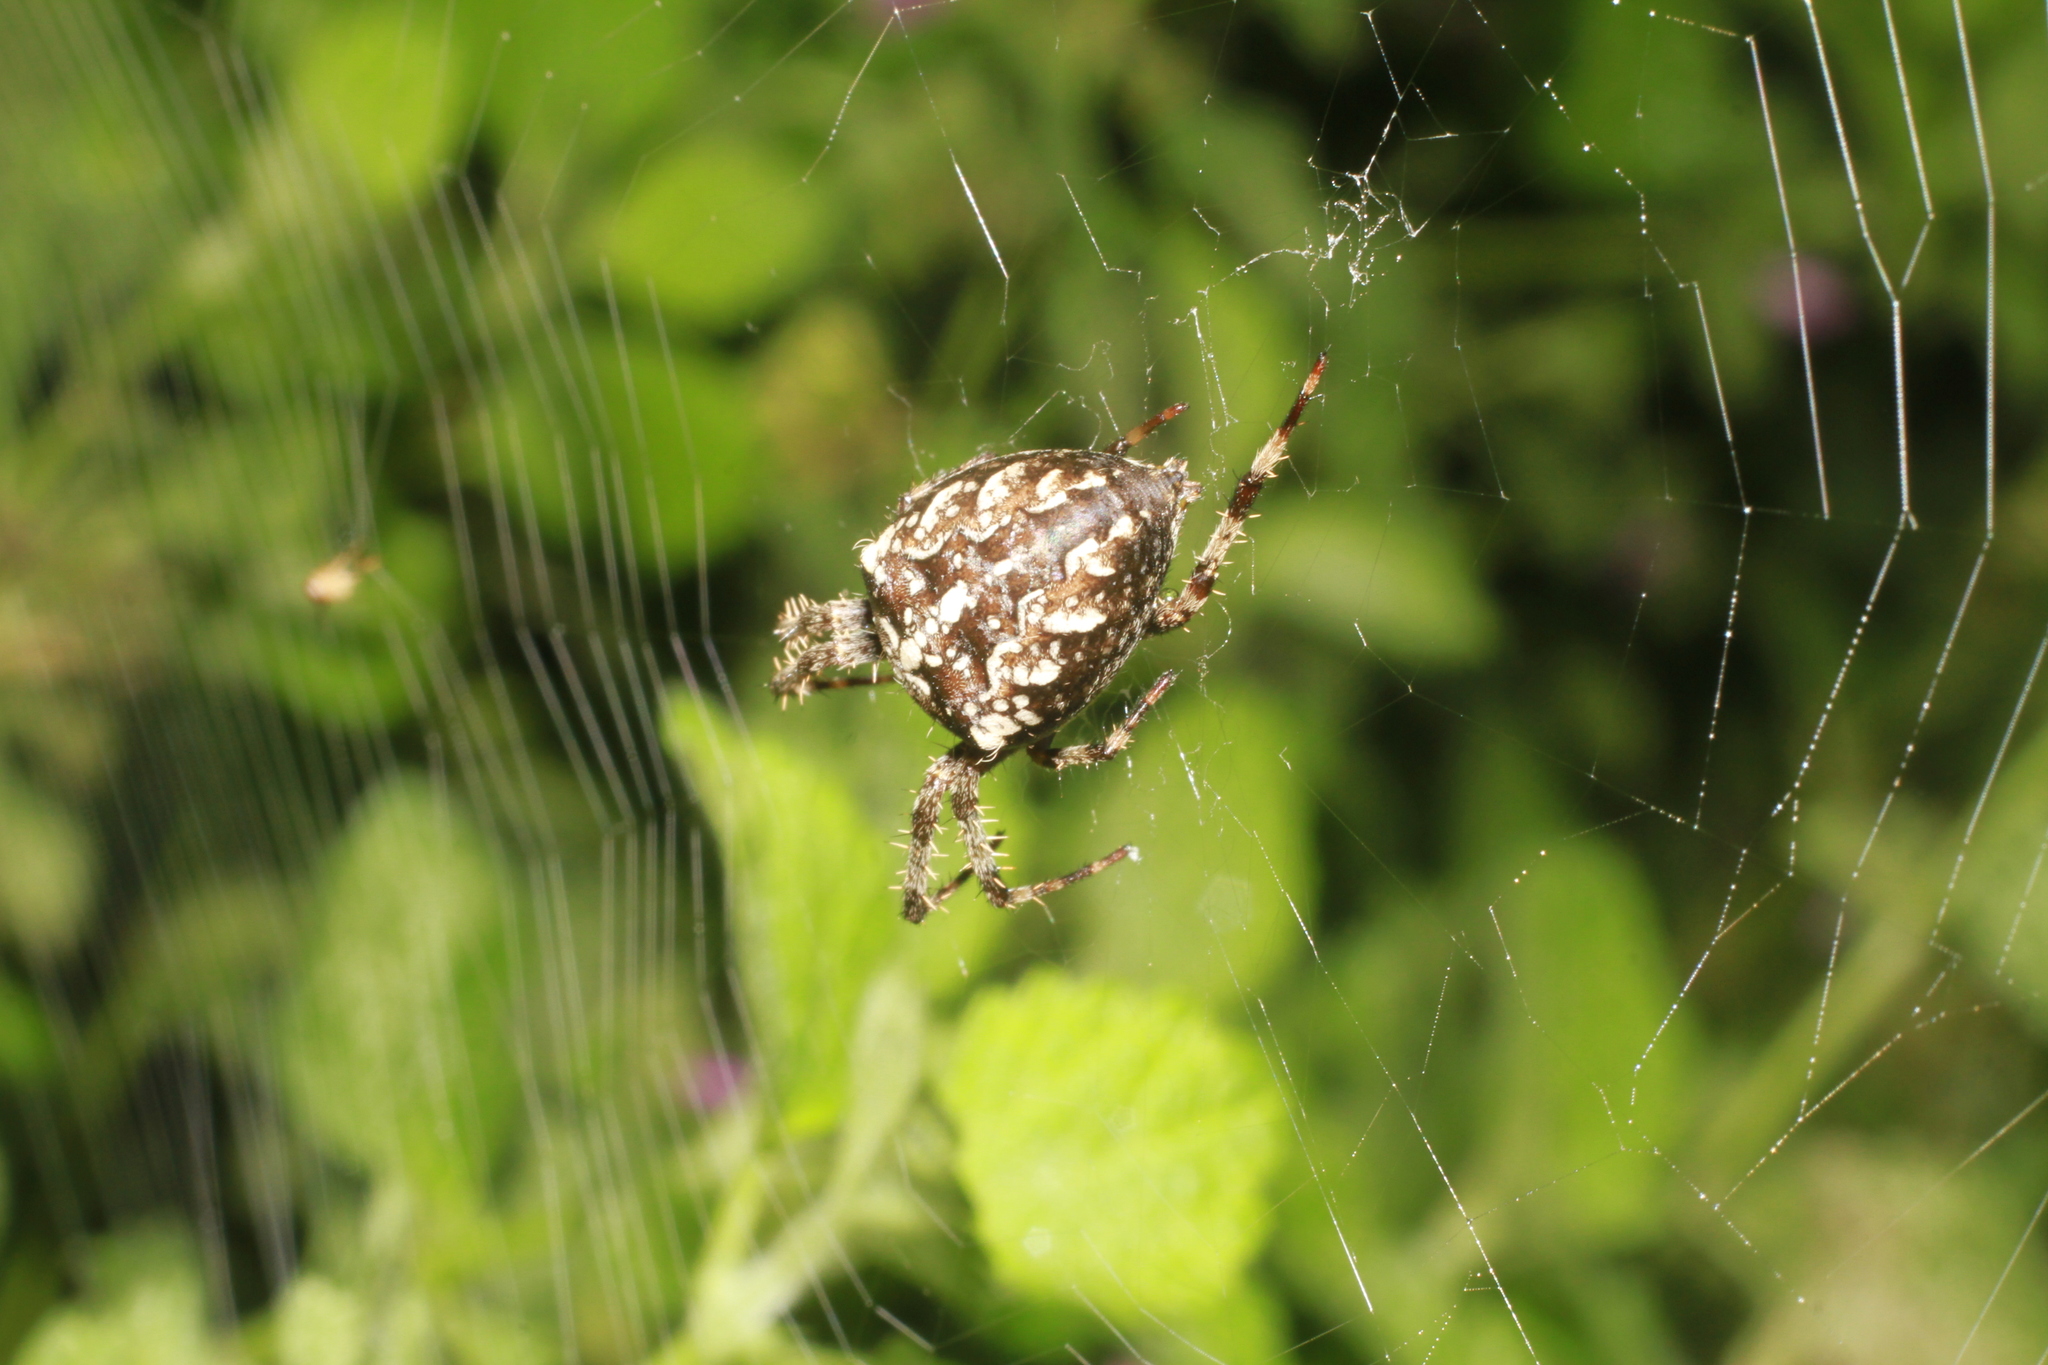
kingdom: Animalia
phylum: Arthropoda
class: Arachnida
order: Araneae
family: Araneidae
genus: Araneus
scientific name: Araneus diadematus
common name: Cross orbweaver
